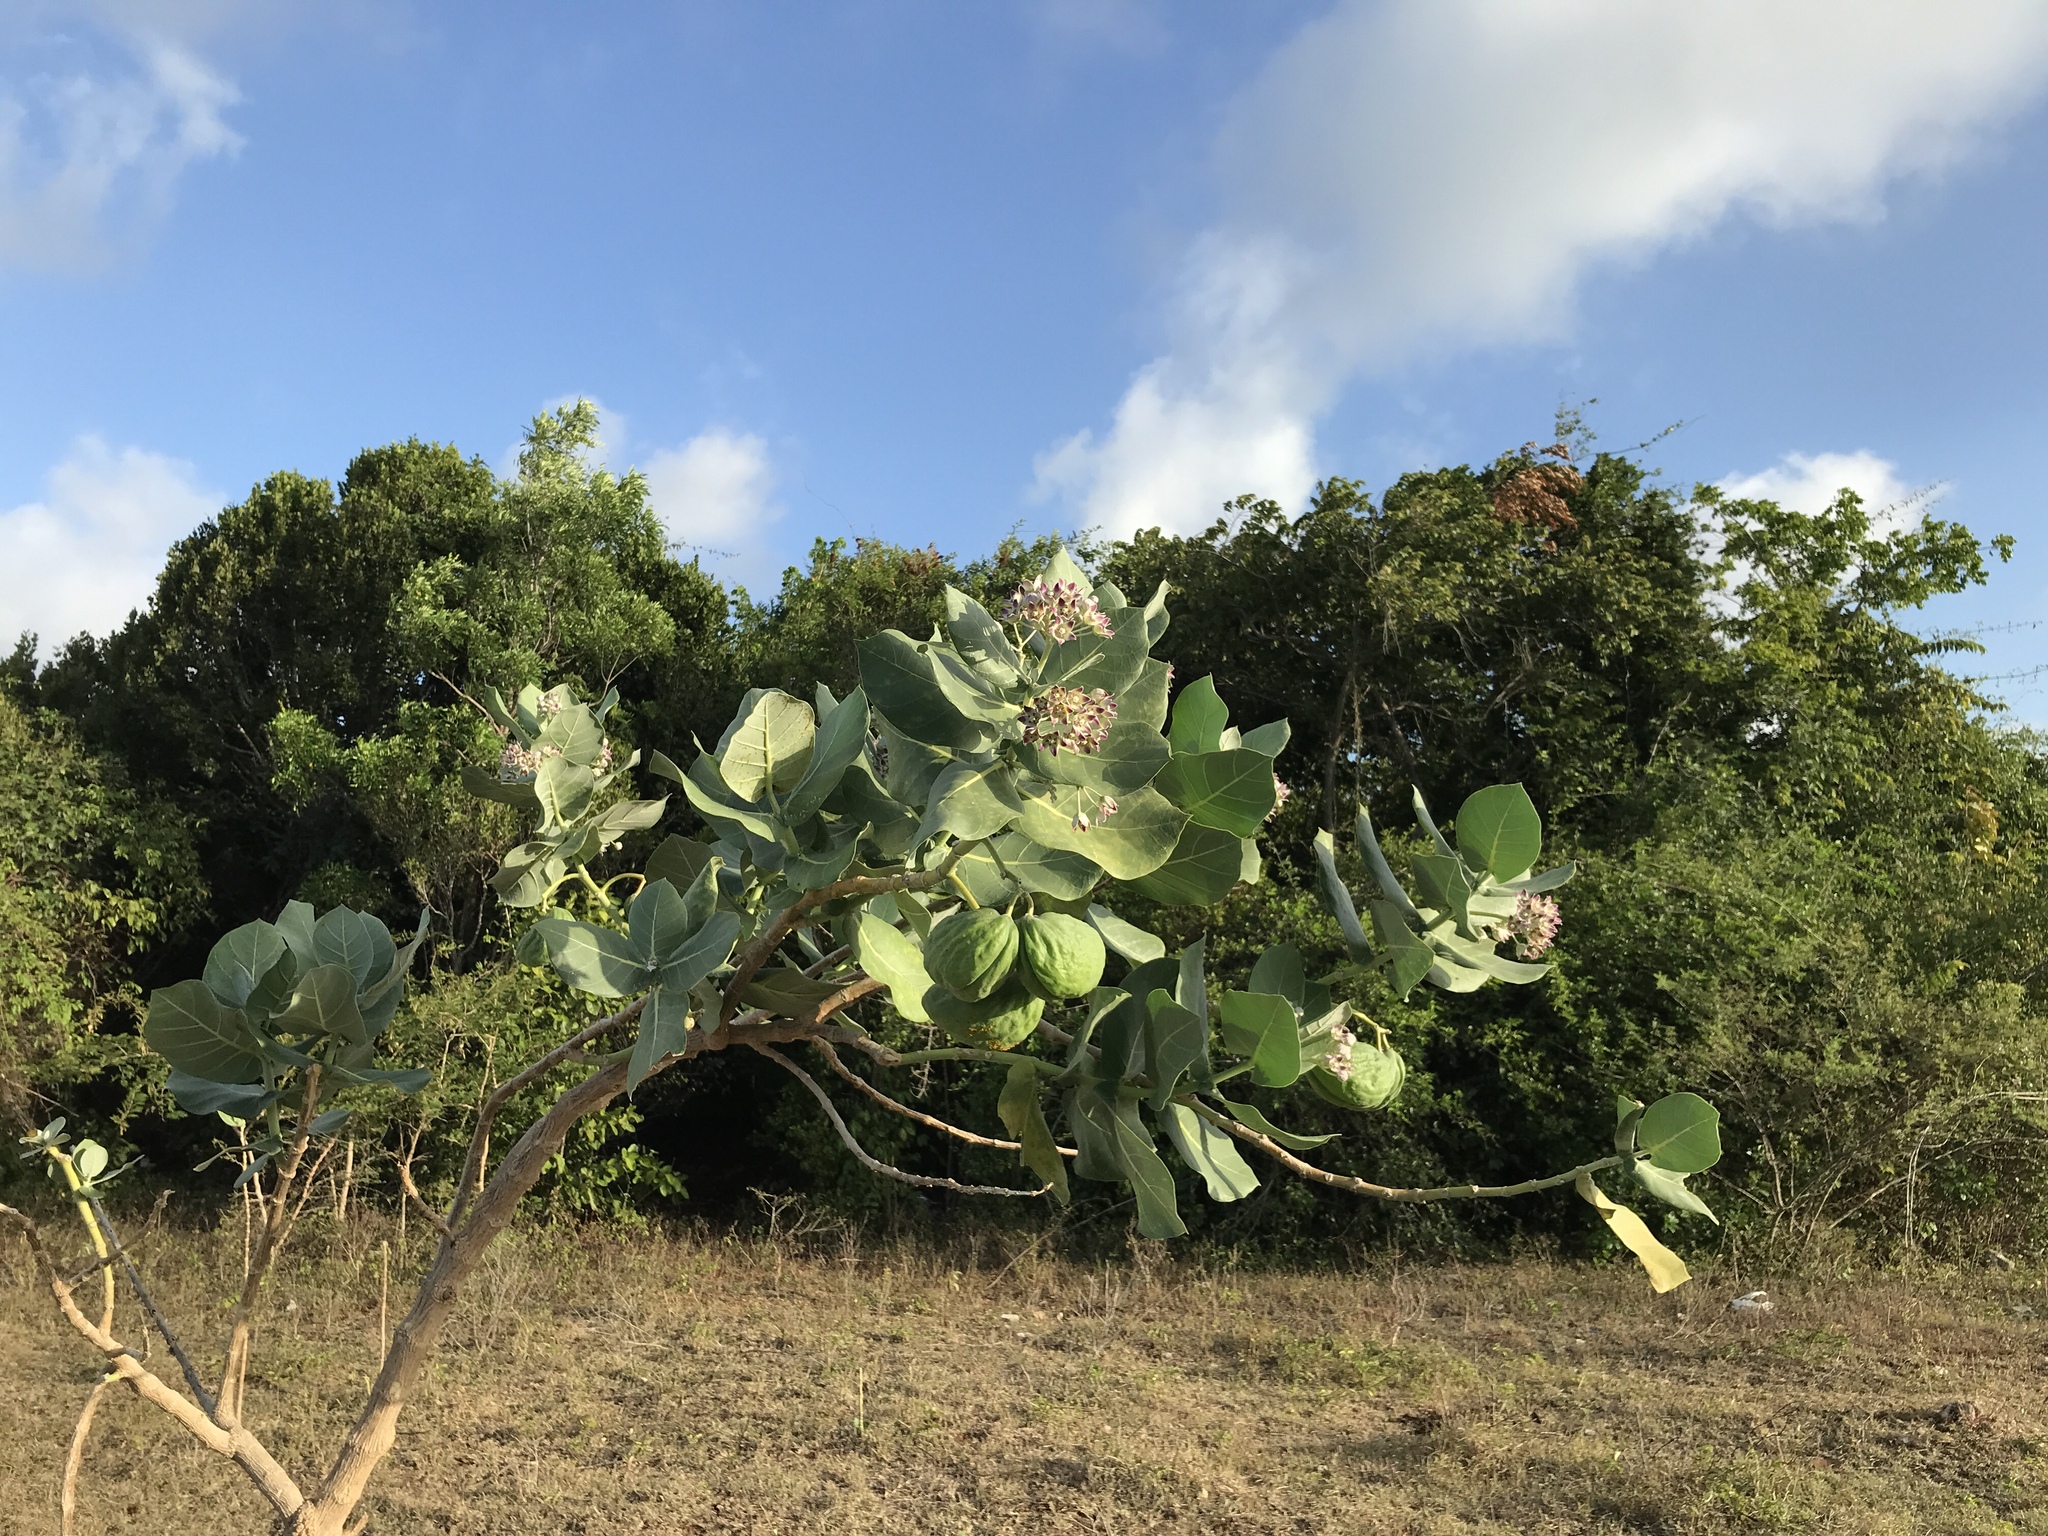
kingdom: Plantae
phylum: Tracheophyta
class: Magnoliopsida
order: Gentianales
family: Apocynaceae
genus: Calotropis
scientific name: Calotropis procera
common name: Roostertree
